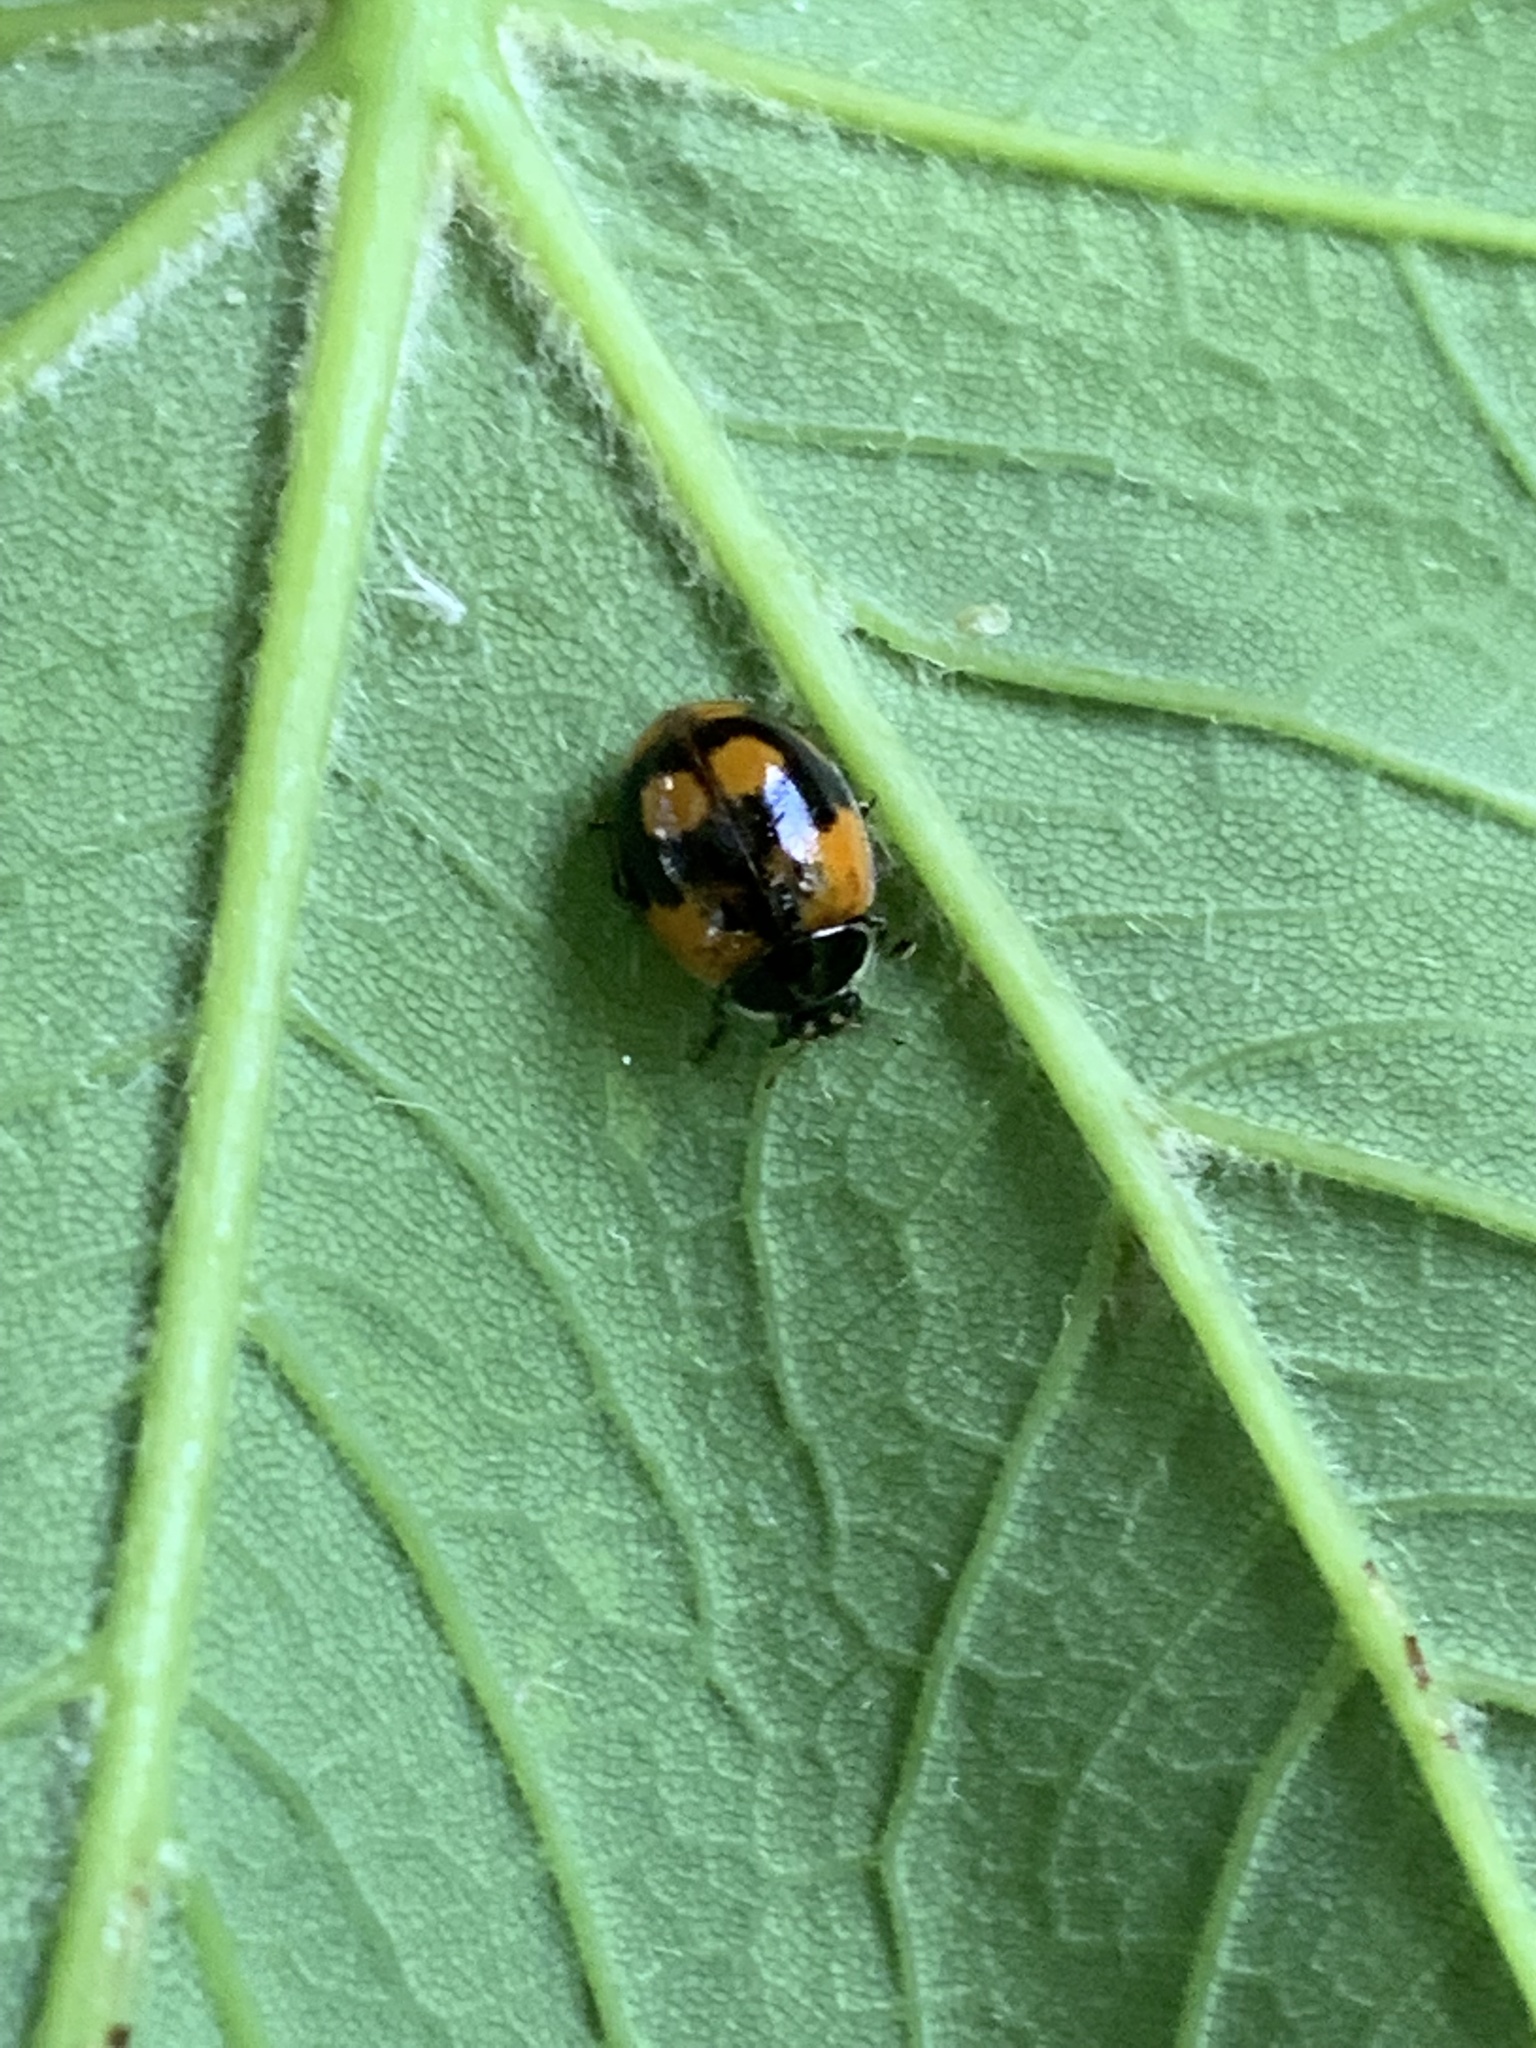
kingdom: Animalia
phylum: Arthropoda
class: Insecta
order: Coleoptera
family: Coccinellidae
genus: Adalia
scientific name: Adalia bipunctata
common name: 2-spot ladybird
